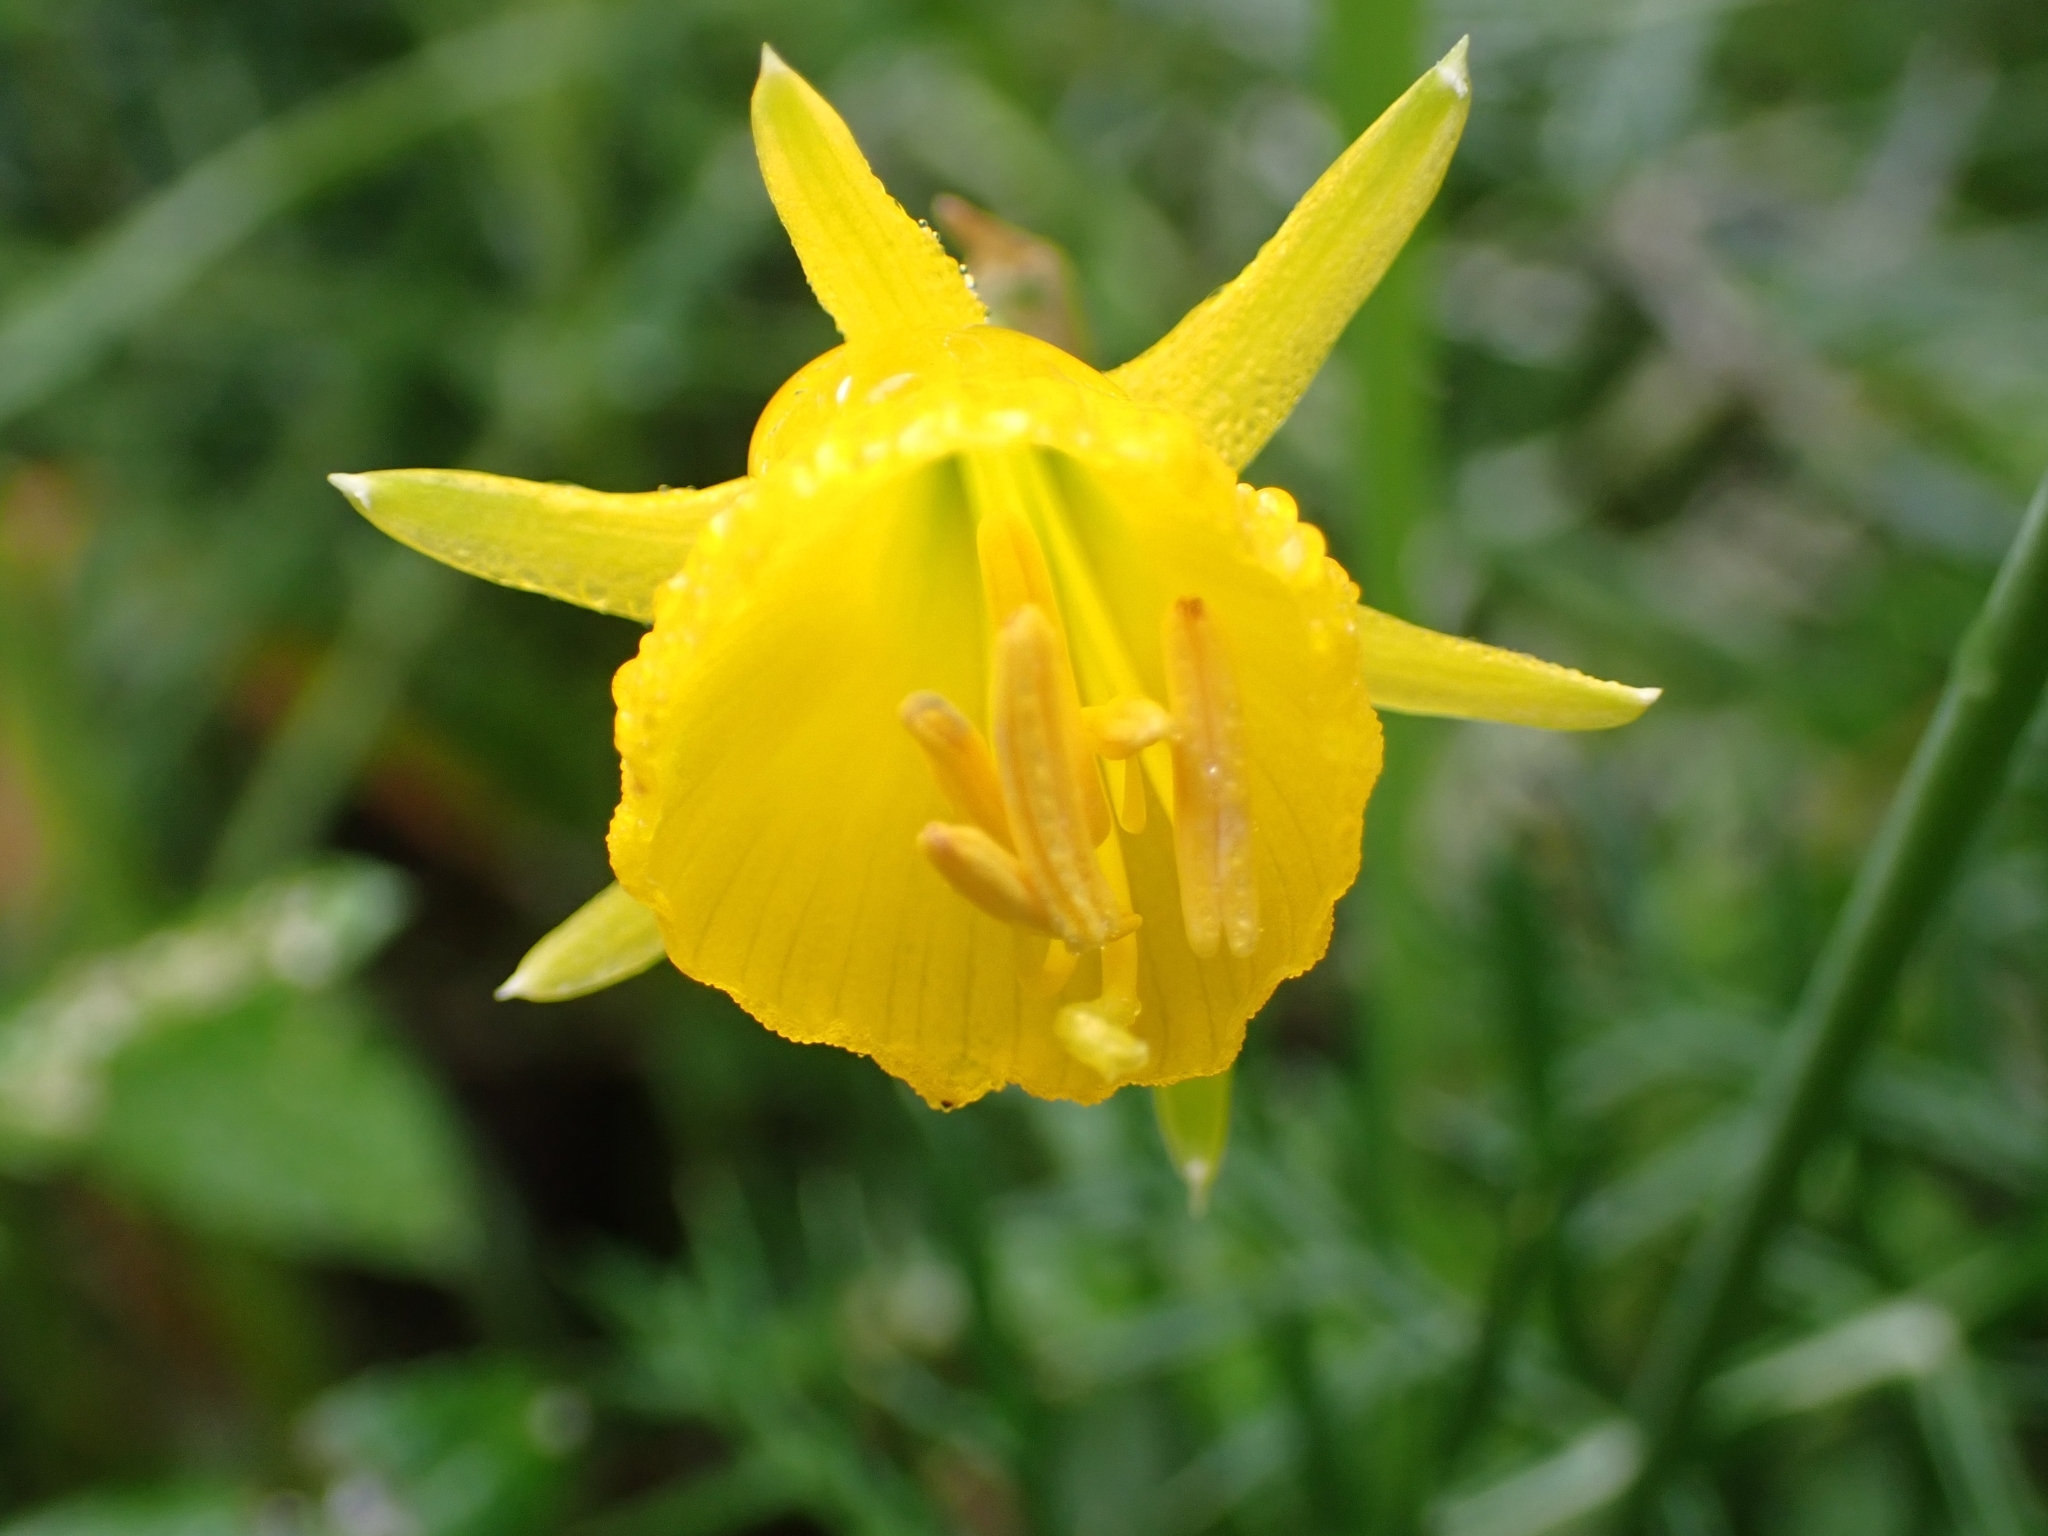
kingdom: Plantae
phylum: Tracheophyta
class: Liliopsida
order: Asparagales
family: Amaryllidaceae
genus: Narcissus
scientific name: Narcissus bulbocodium
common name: Hoop-petticoat daffodil
